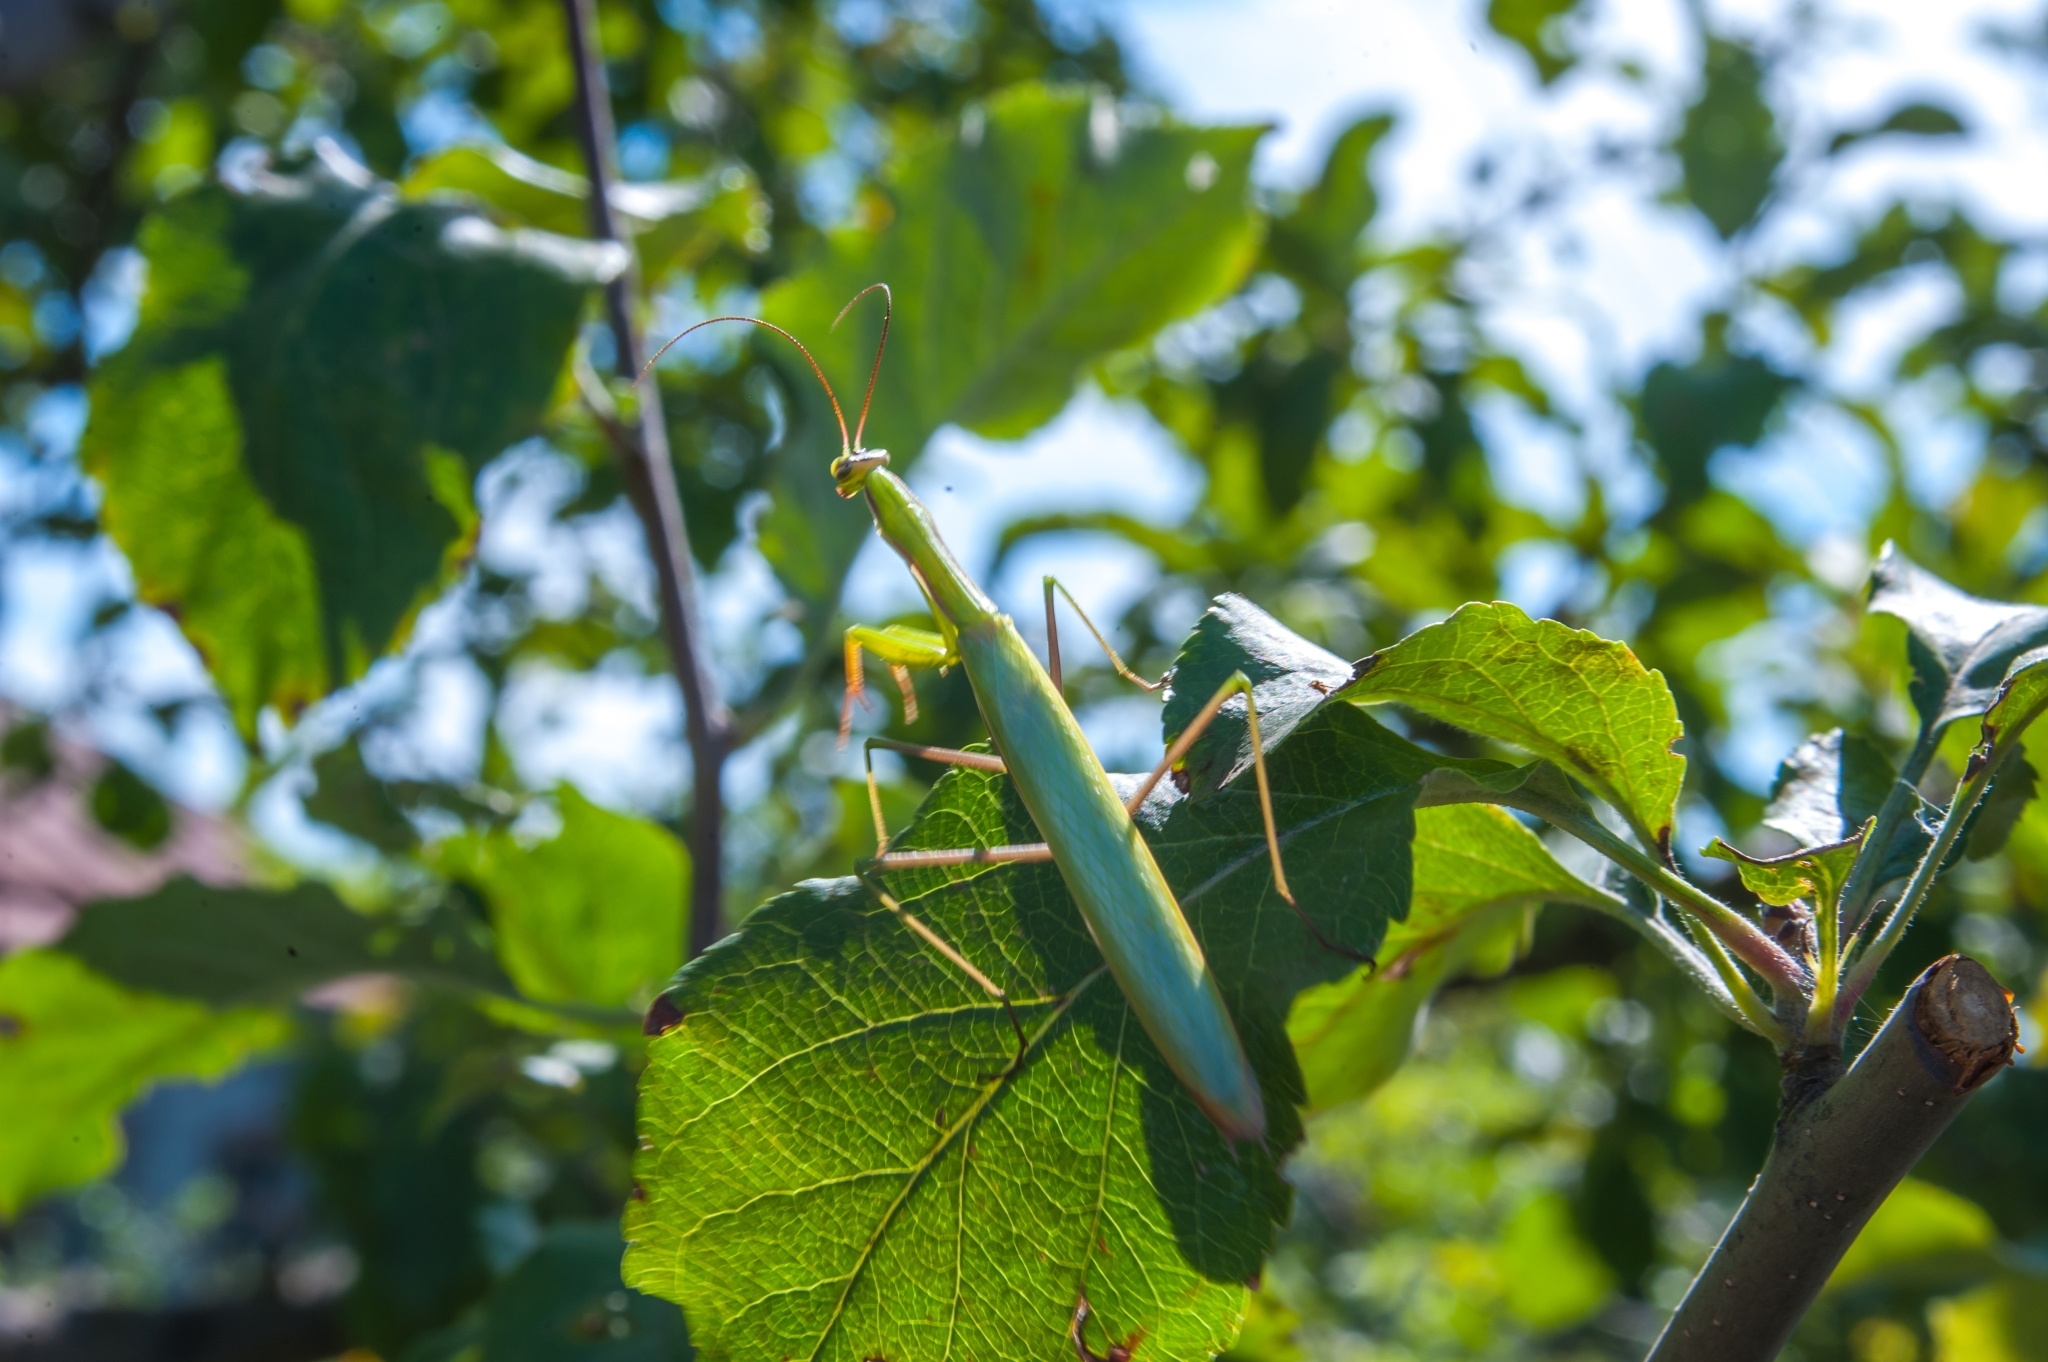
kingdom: Animalia
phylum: Arthropoda
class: Insecta
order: Mantodea
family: Mantidae
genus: Mantis
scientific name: Mantis religiosa
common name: Praying mantis
